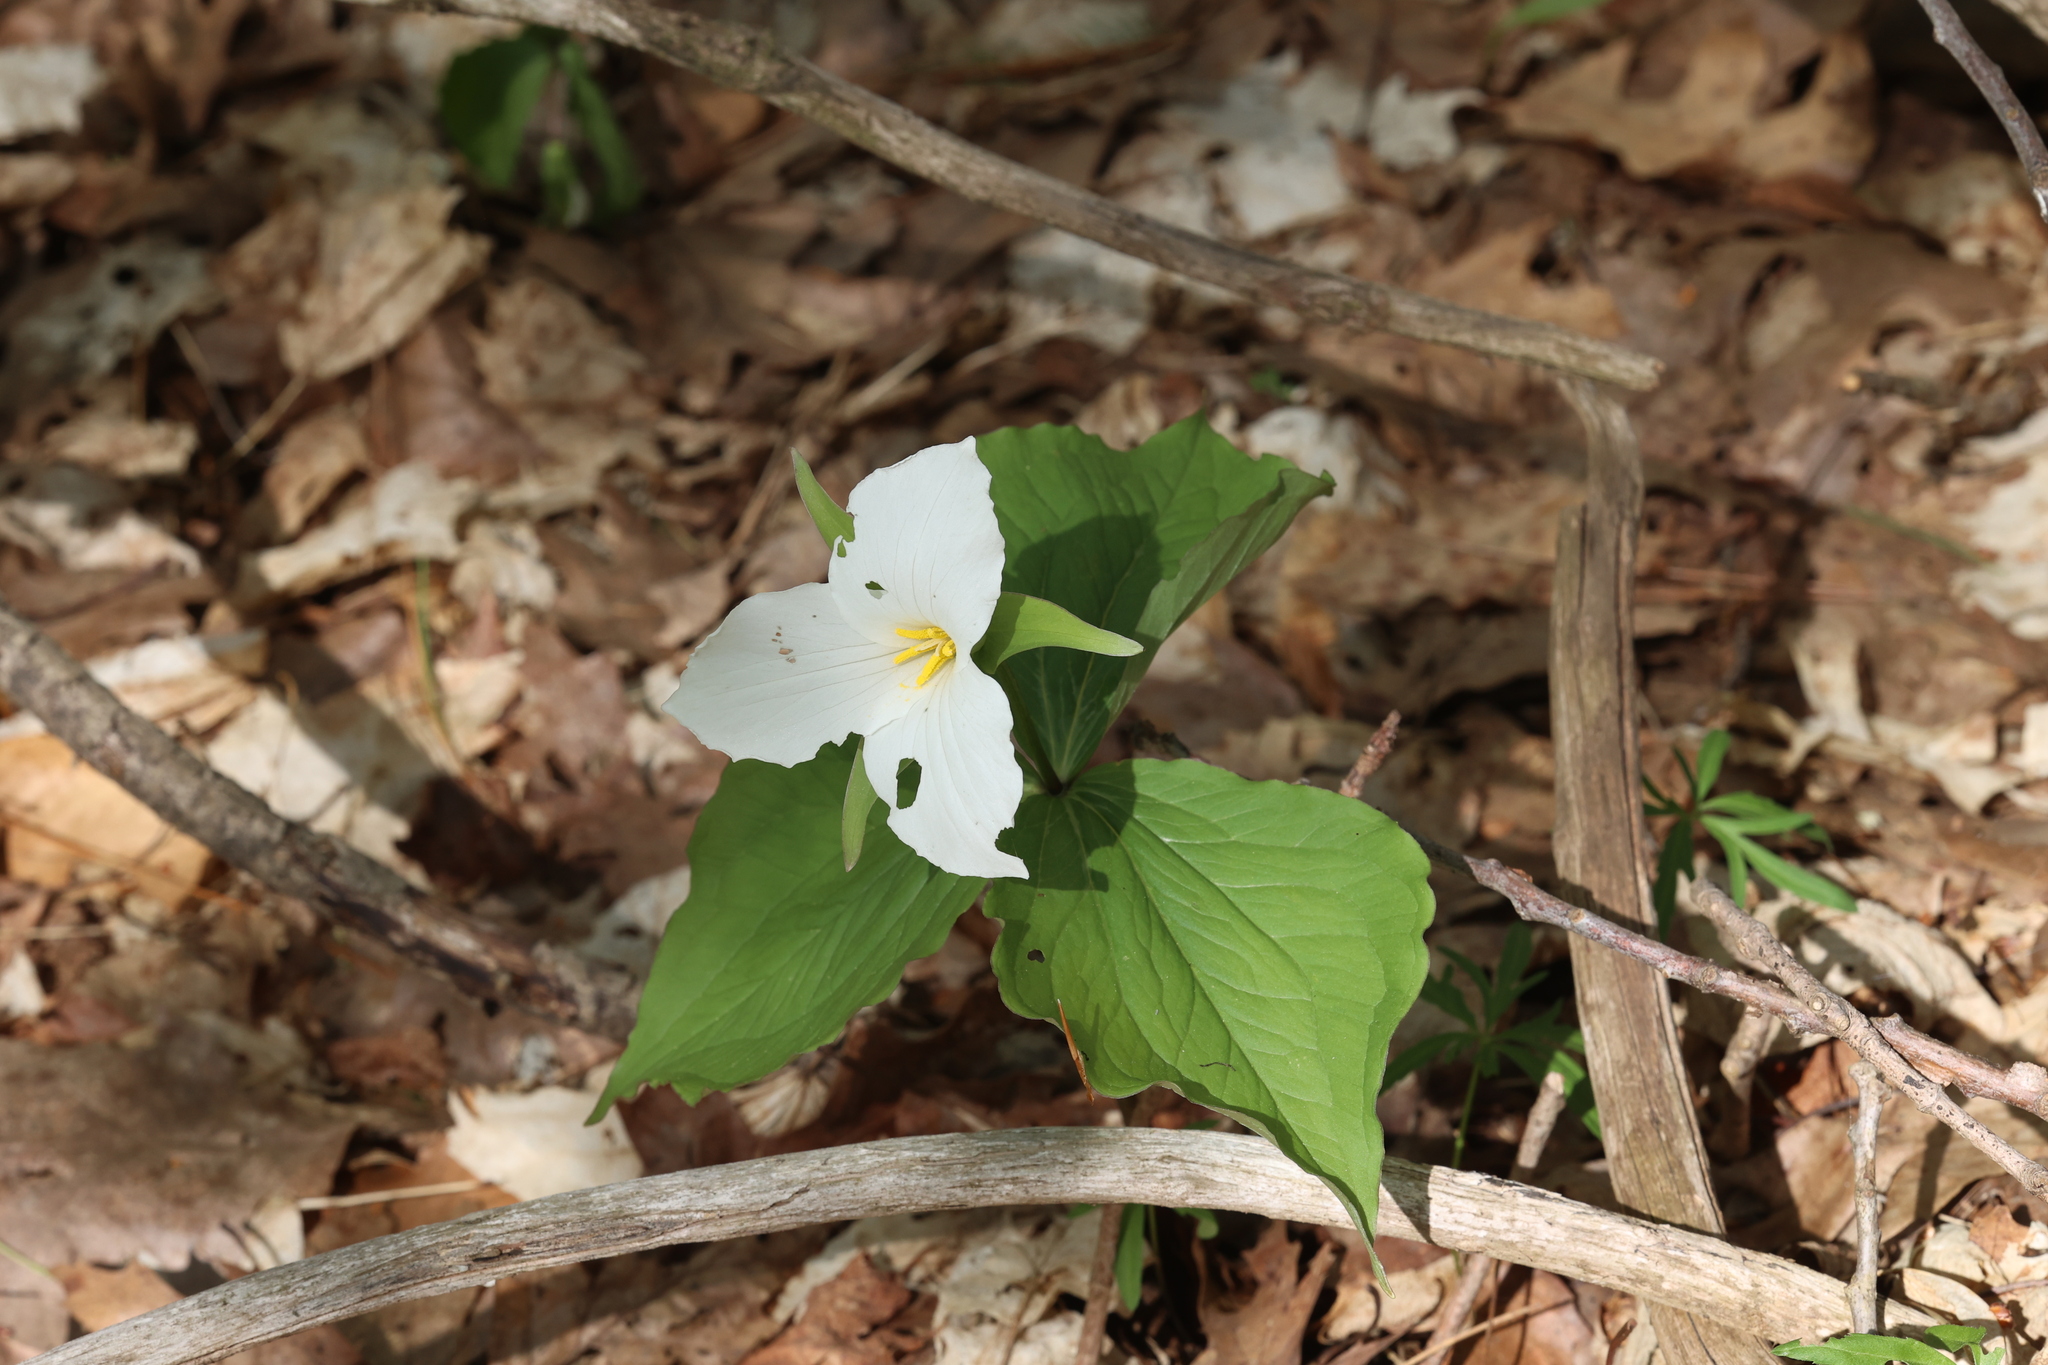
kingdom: Plantae
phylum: Tracheophyta
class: Liliopsida
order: Liliales
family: Melanthiaceae
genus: Trillium
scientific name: Trillium grandiflorum
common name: Great white trillium
